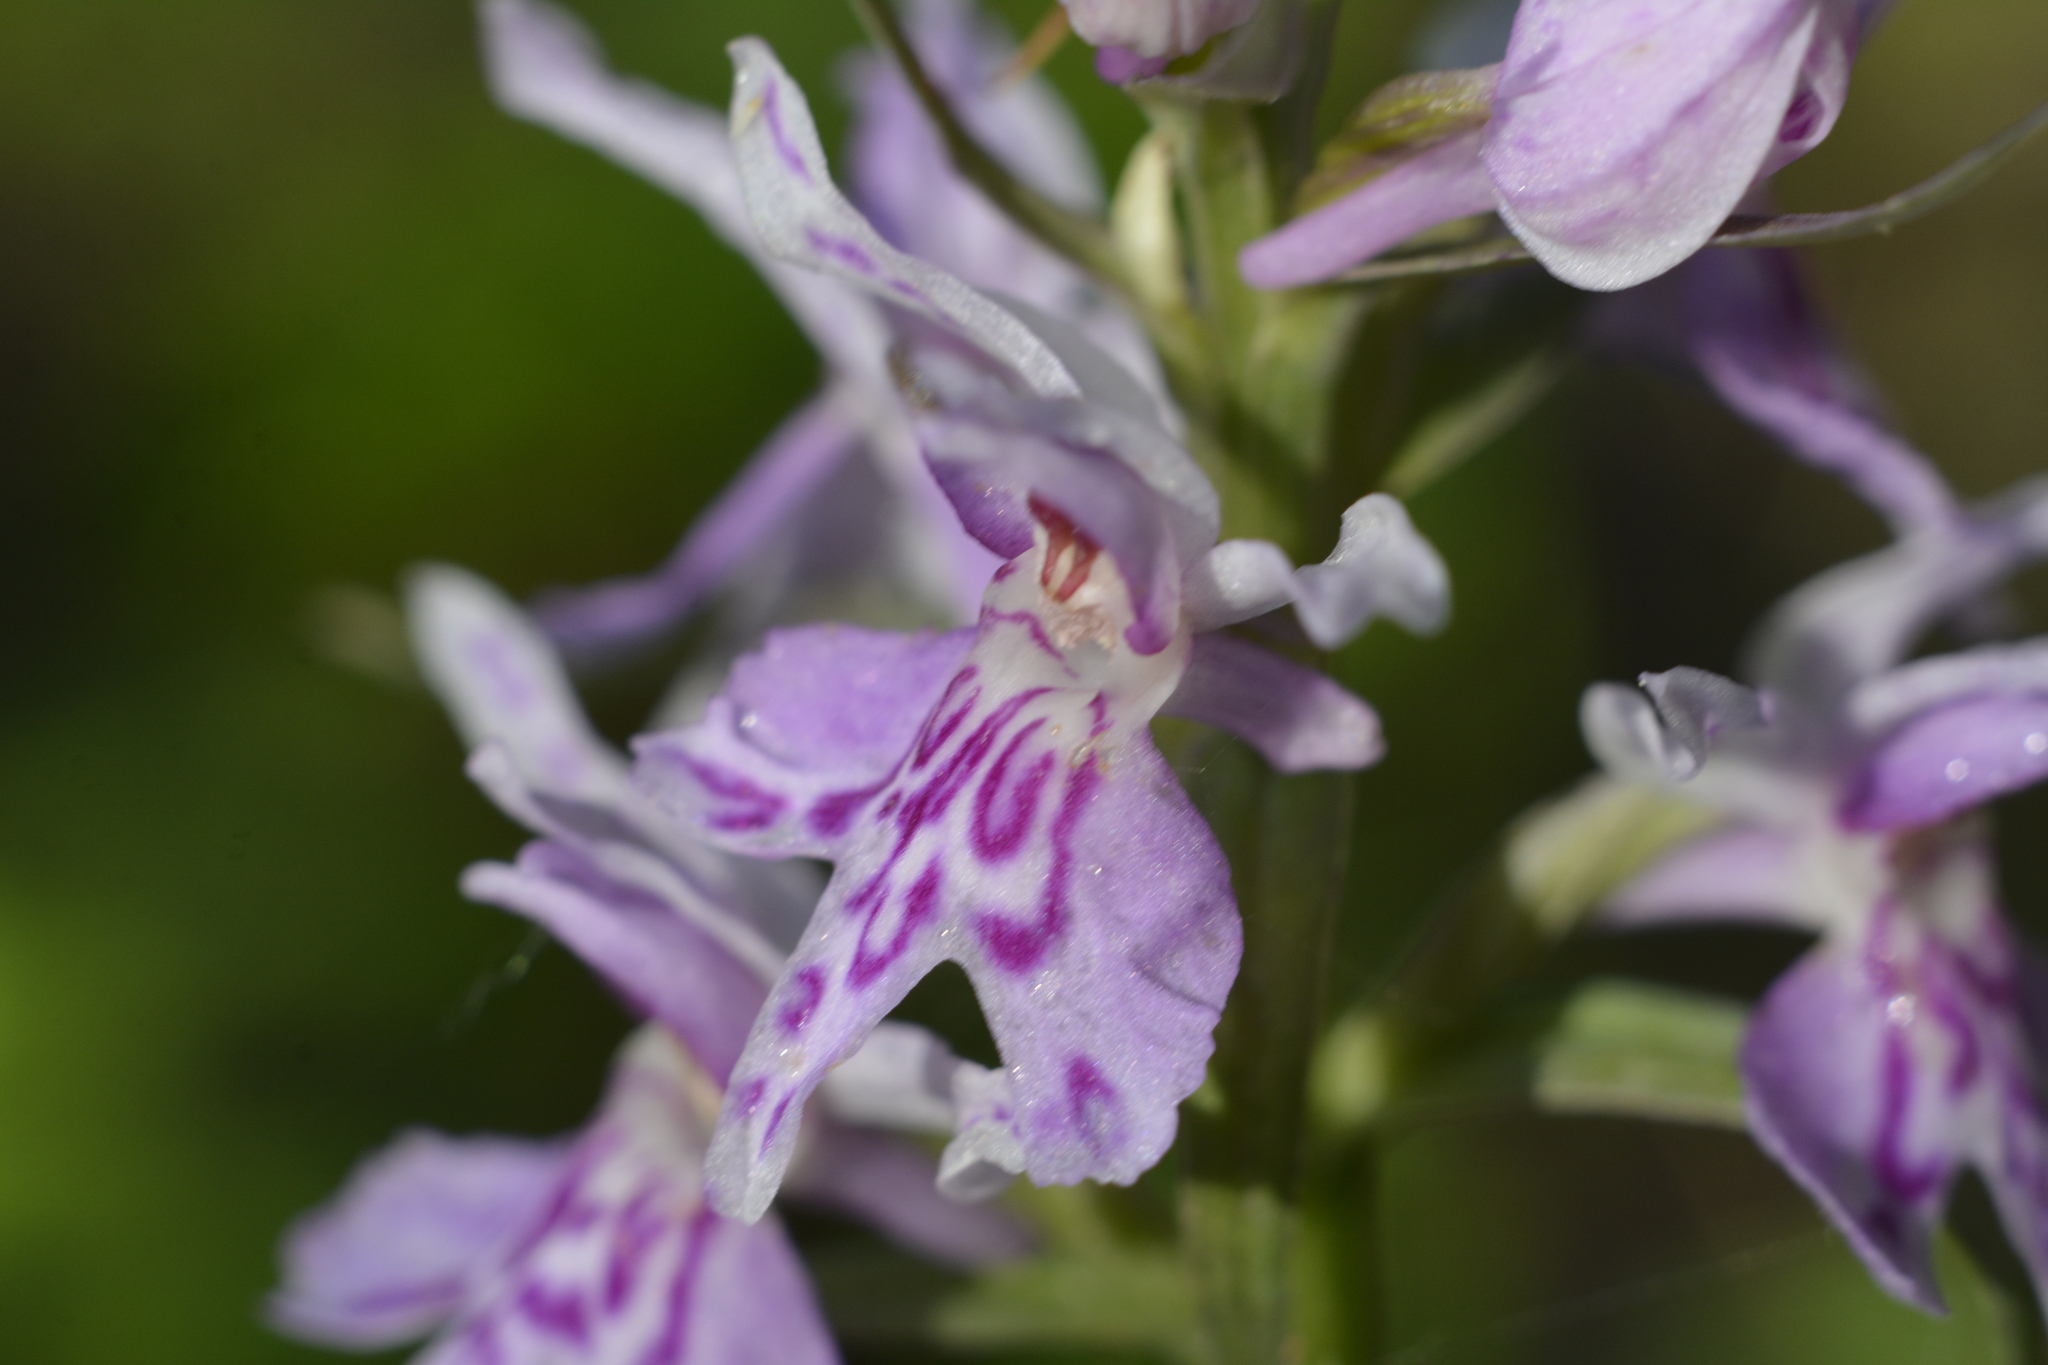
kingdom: Plantae
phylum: Tracheophyta
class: Liliopsida
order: Asparagales
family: Orchidaceae
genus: Dactylorhiza
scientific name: Dactylorhiza maculata
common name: Heath spotted-orchid
